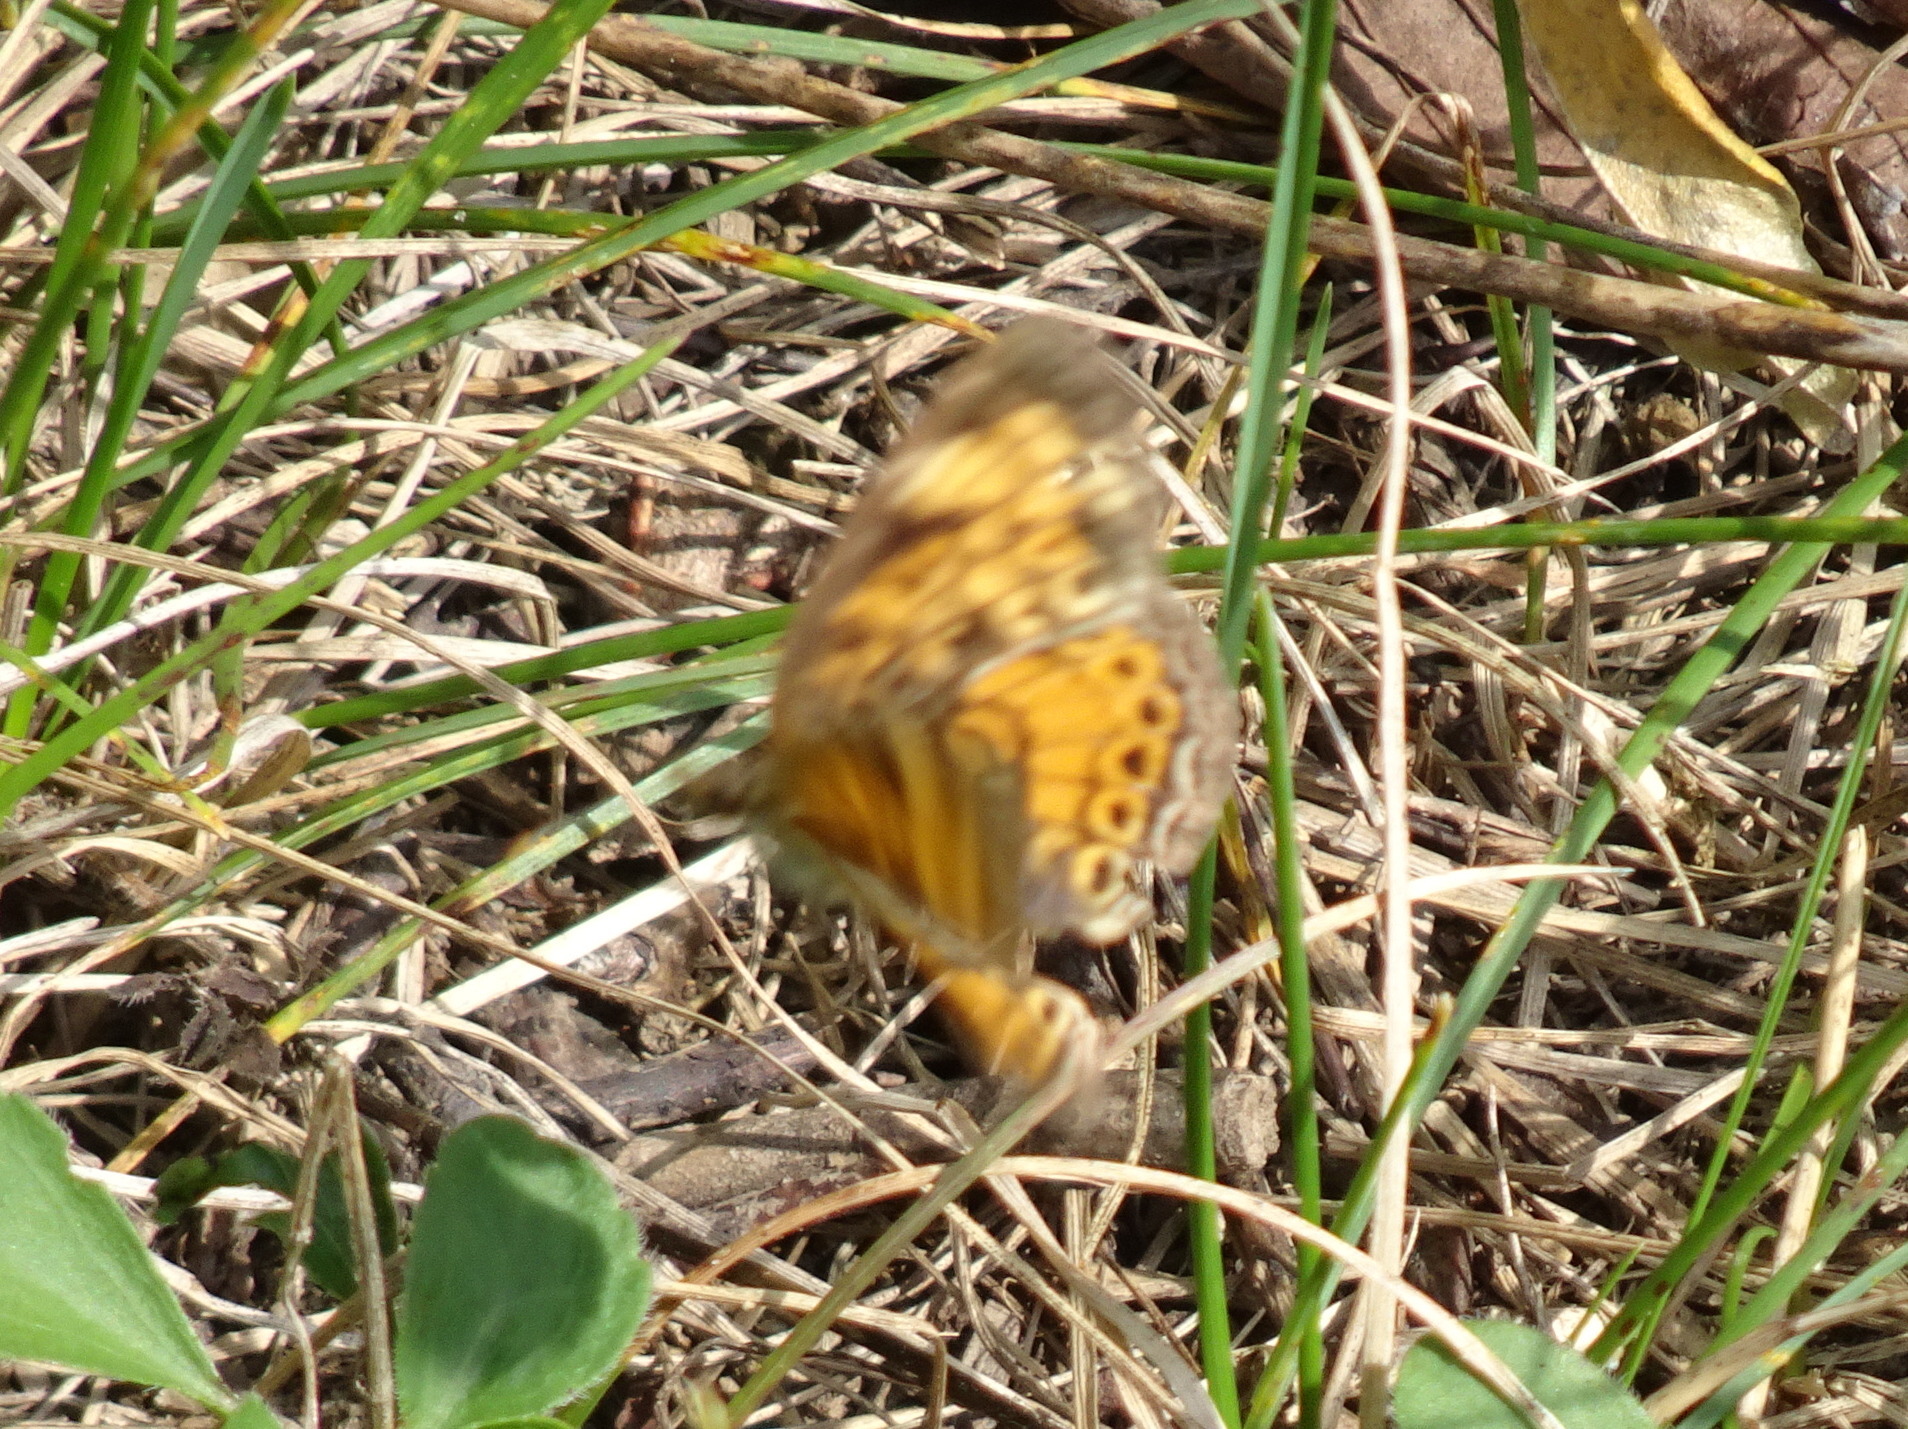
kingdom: Animalia
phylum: Arthropoda
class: Insecta
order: Lepidoptera
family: Nymphalidae
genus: Phyciodes
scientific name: Phyciodes tharos
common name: Pearl crescent
